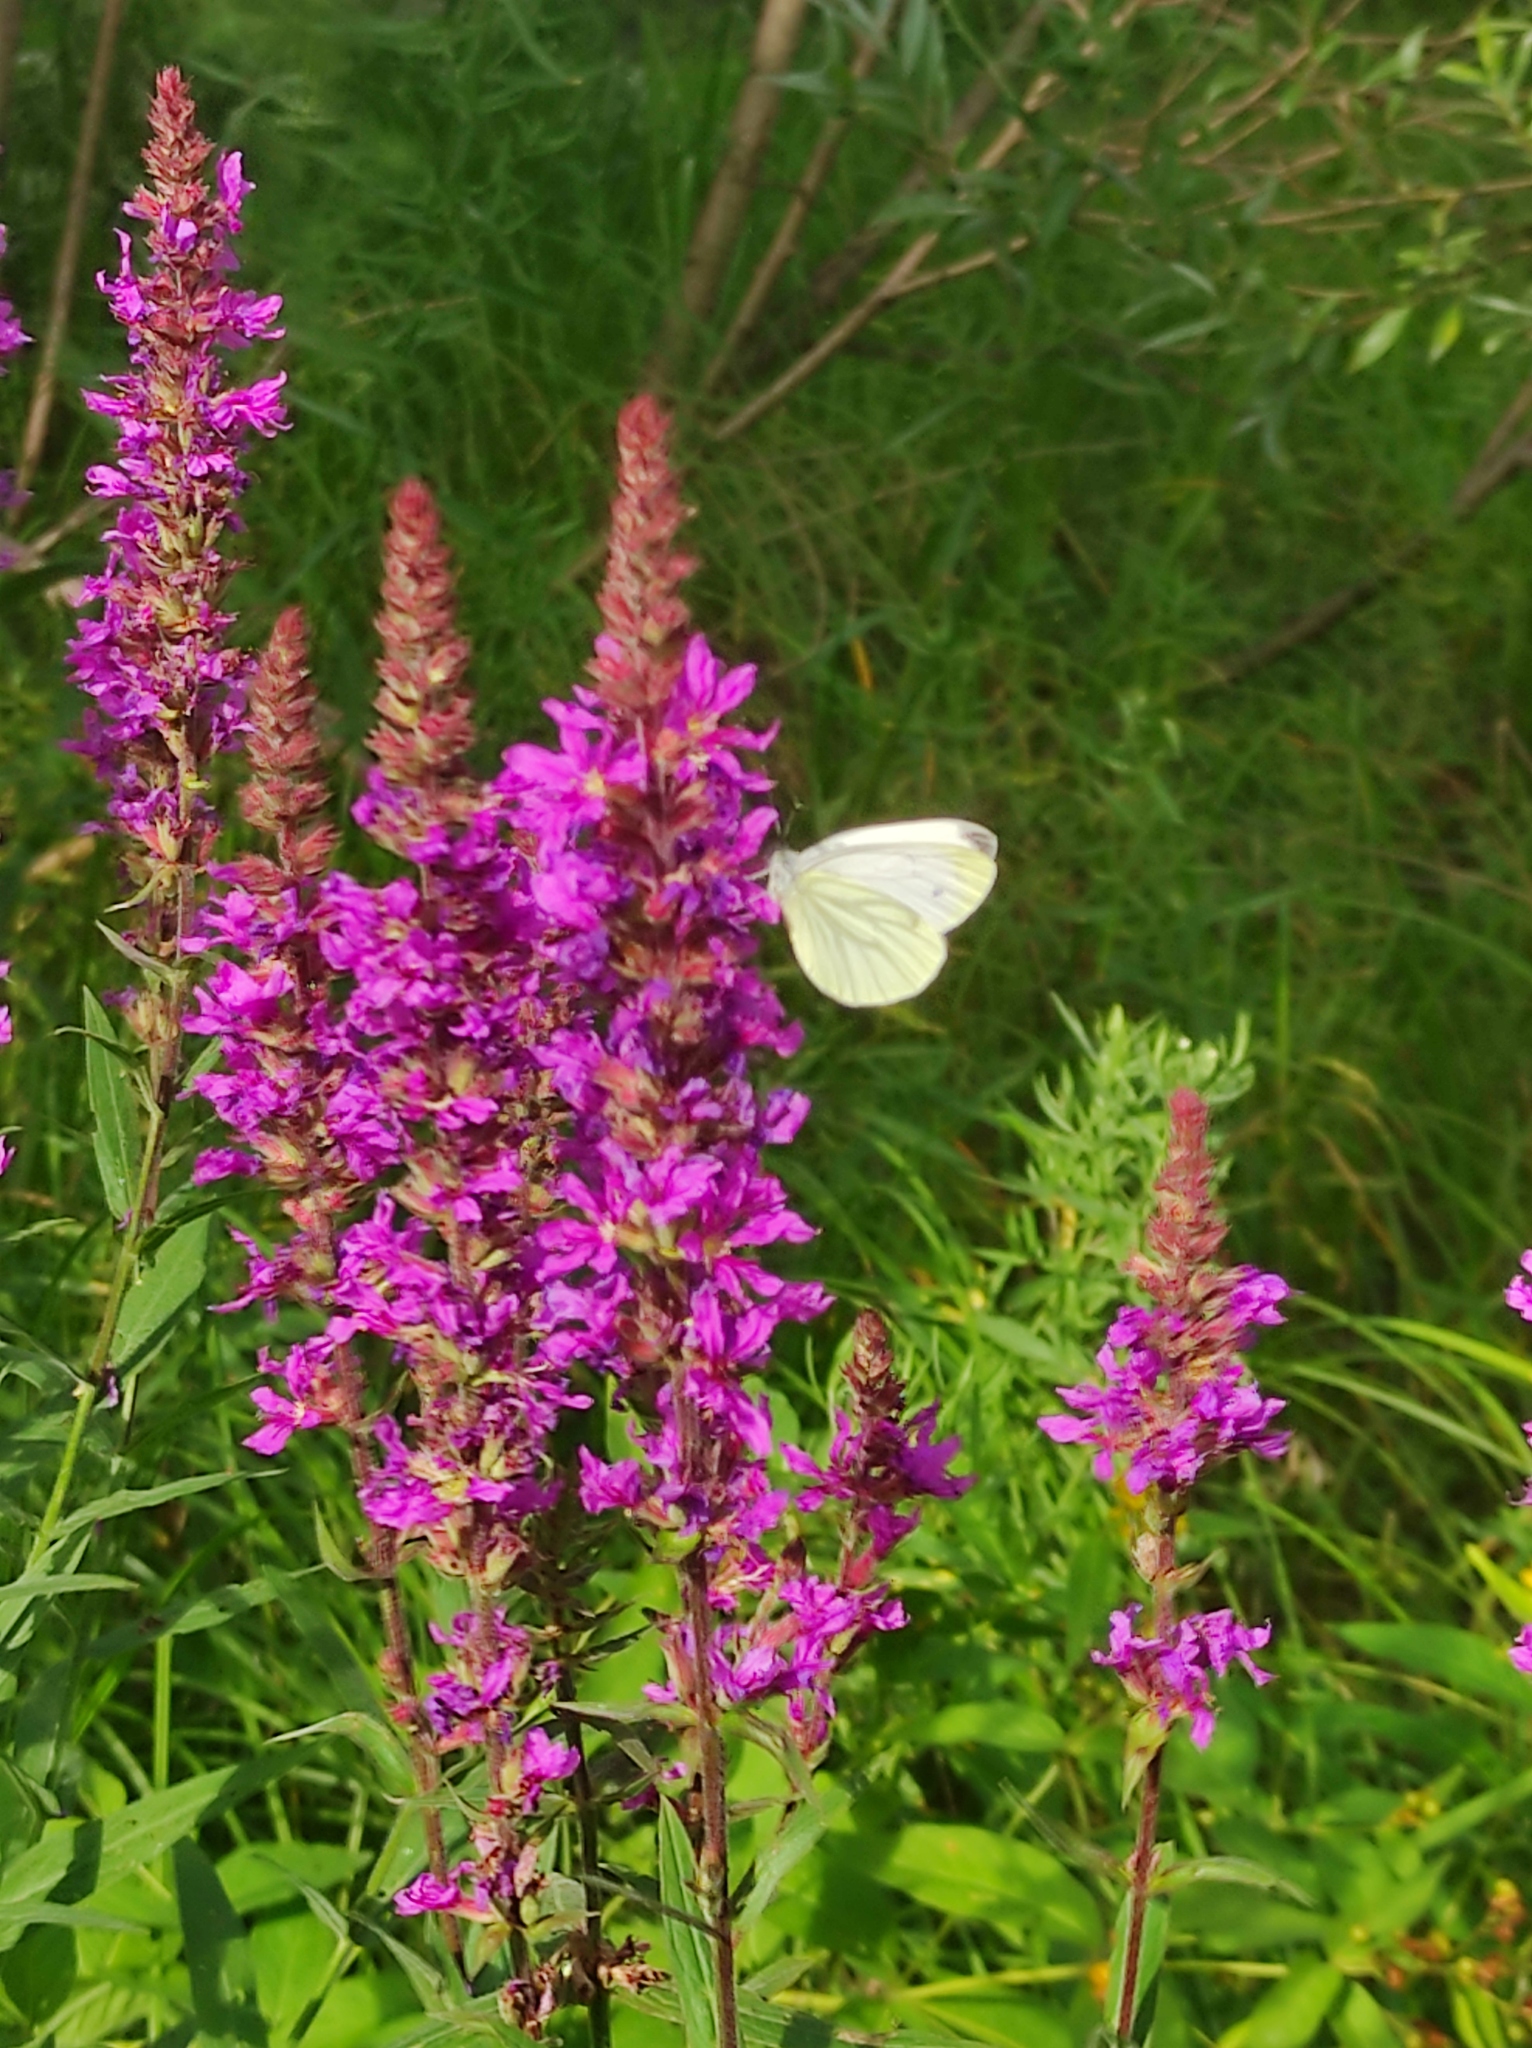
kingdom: Plantae
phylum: Tracheophyta
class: Magnoliopsida
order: Myrtales
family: Lythraceae
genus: Lythrum
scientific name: Lythrum salicaria
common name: Purple loosestrife
